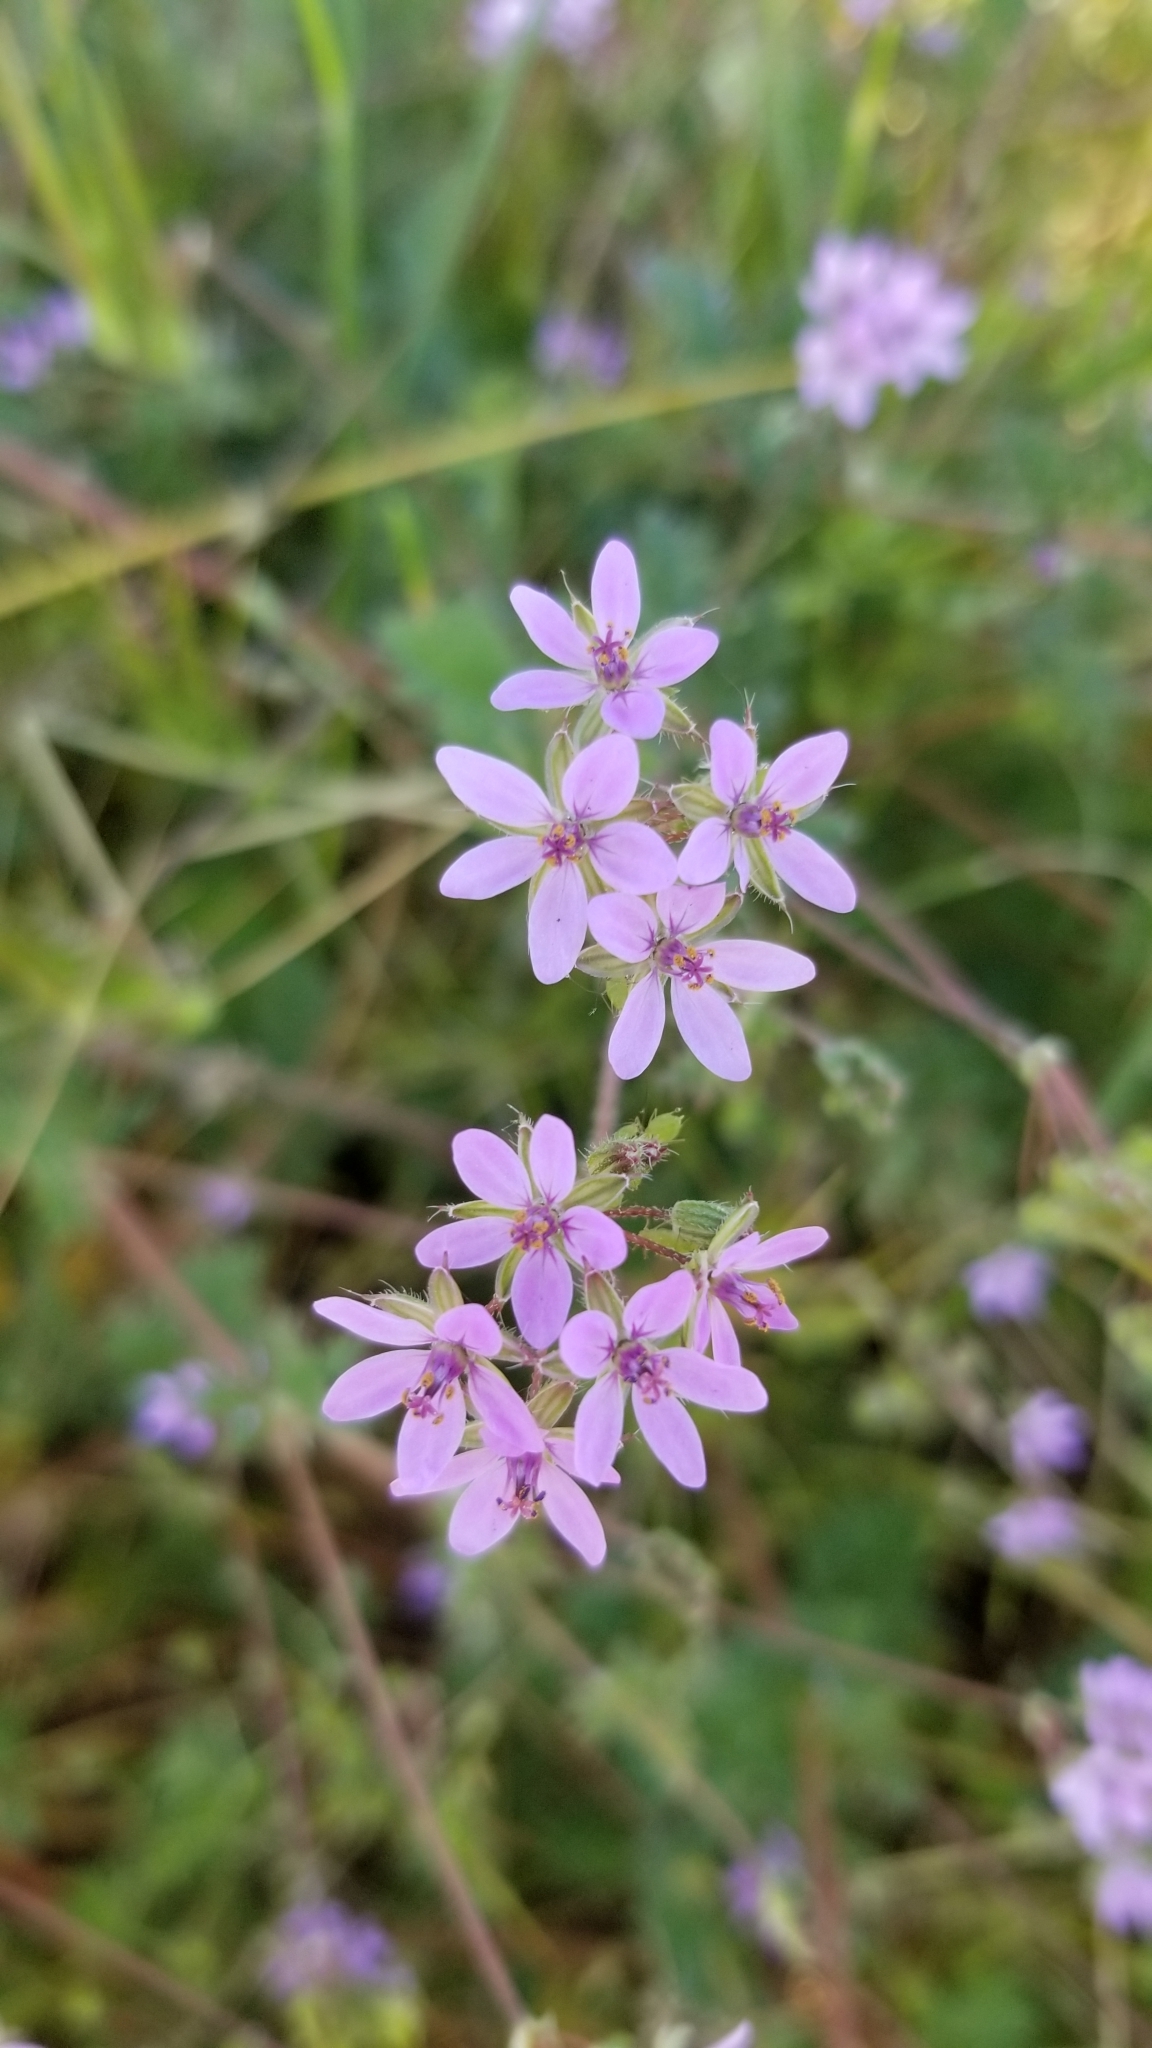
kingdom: Plantae
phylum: Tracheophyta
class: Magnoliopsida
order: Geraniales
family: Geraniaceae
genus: Erodium
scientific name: Erodium cicutarium
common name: Common stork's-bill
